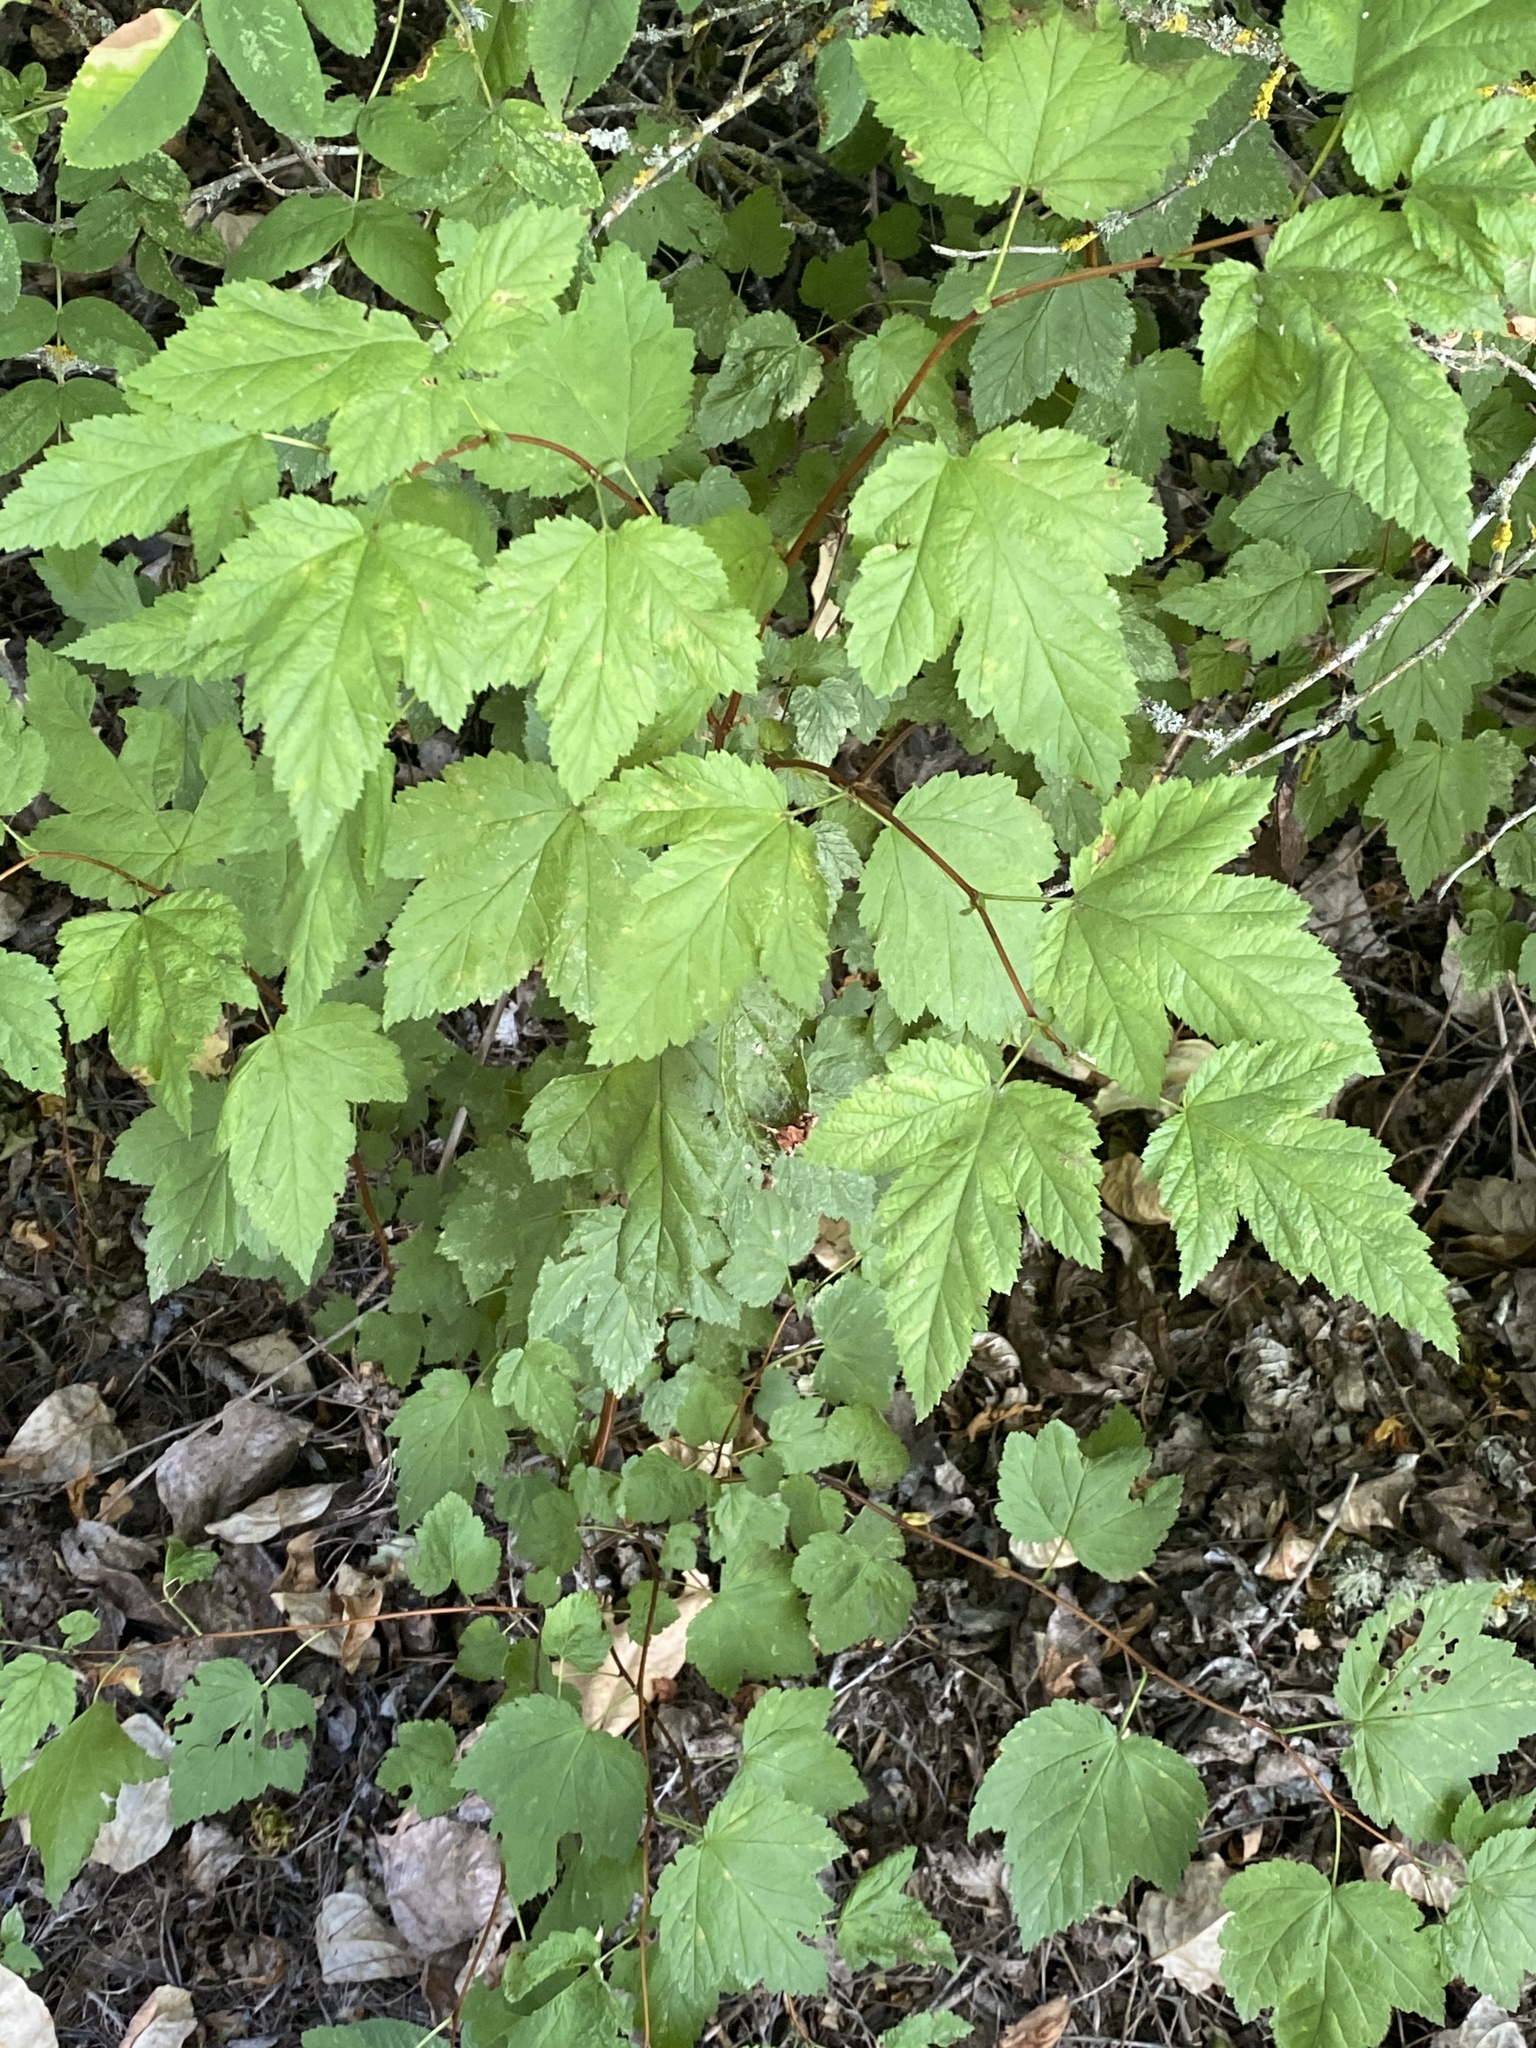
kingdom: Plantae
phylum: Tracheophyta
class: Magnoliopsida
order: Rosales
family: Rosaceae
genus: Physocarpus
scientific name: Physocarpus capitatus
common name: Pacific ninebark
